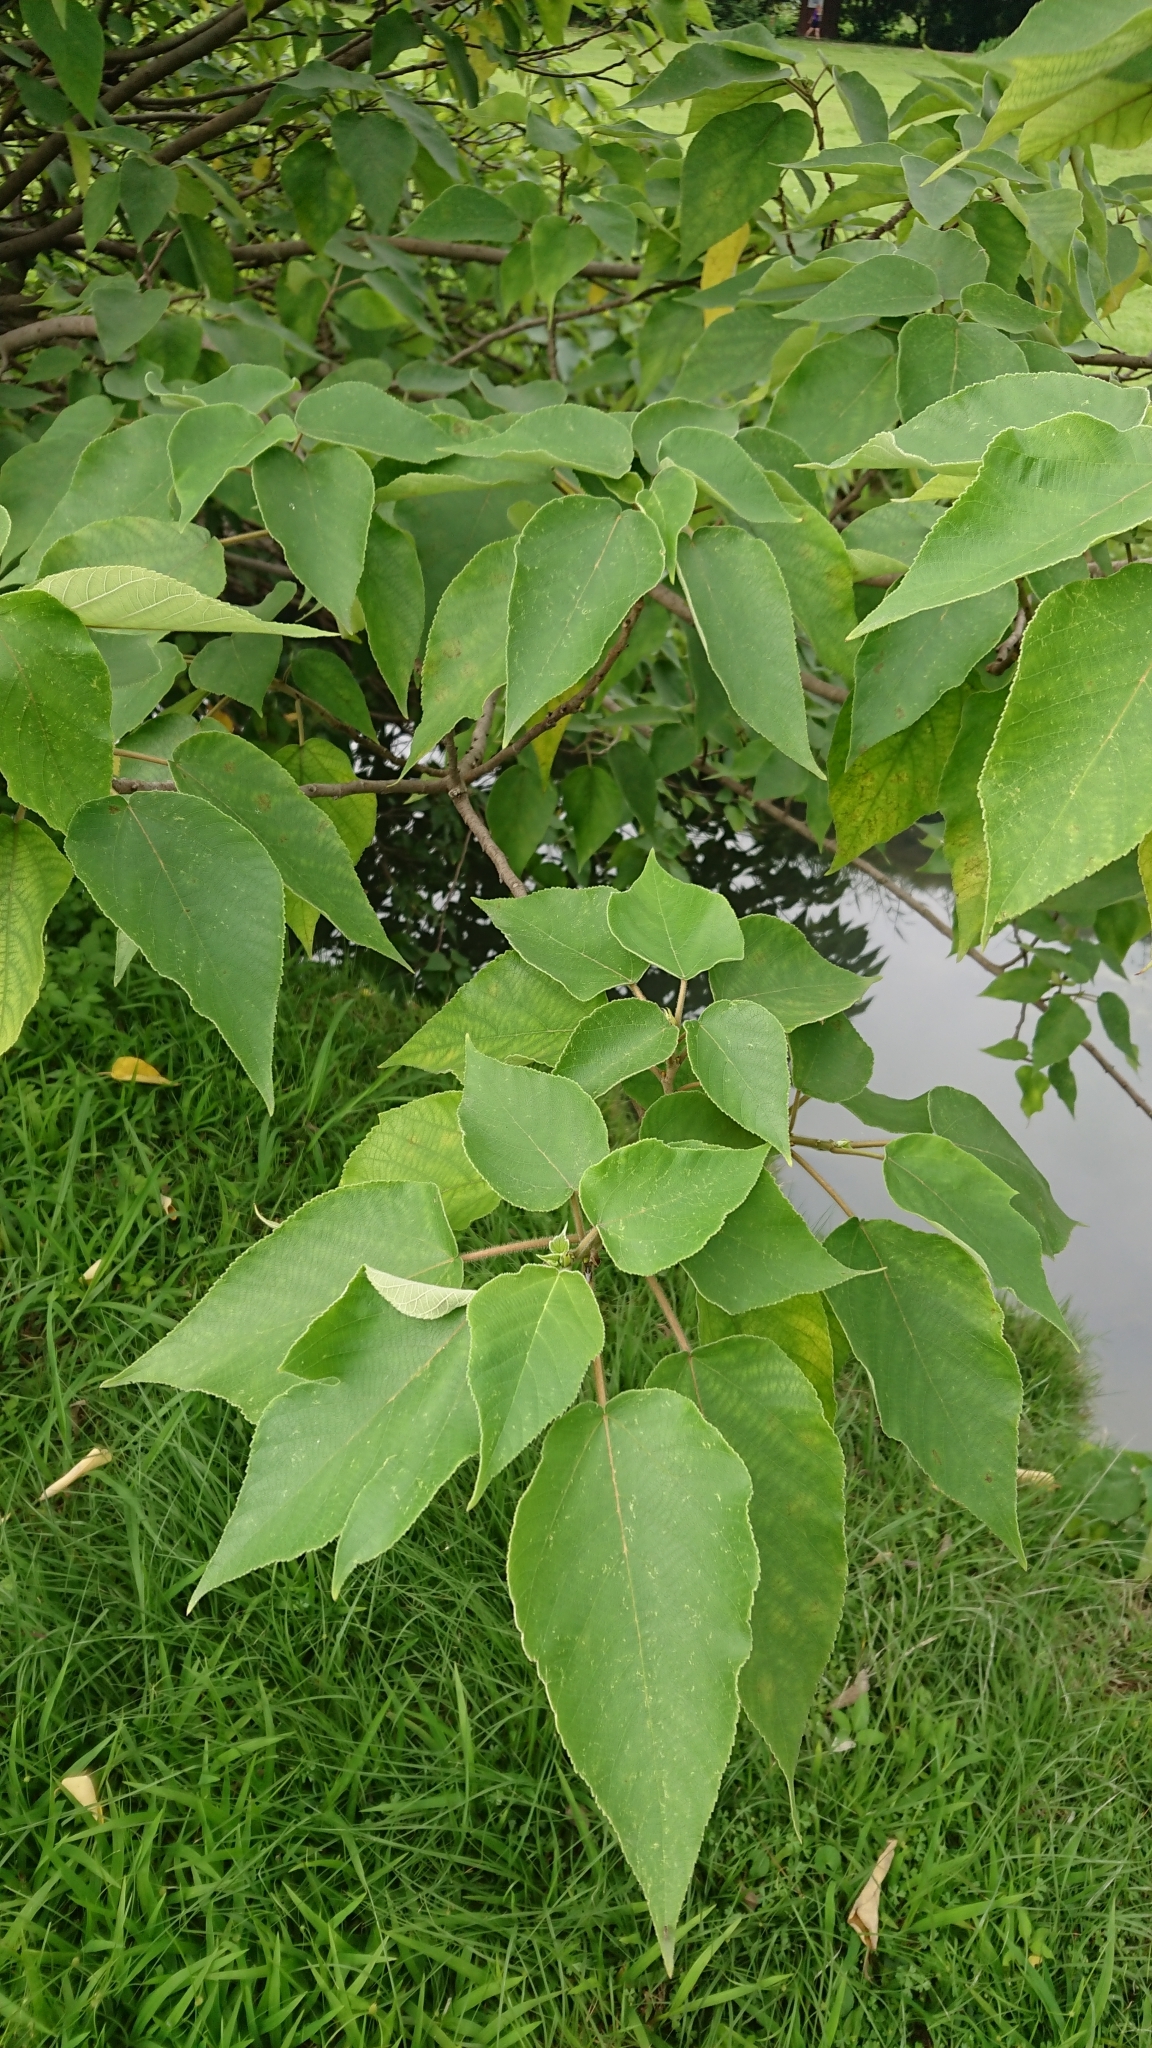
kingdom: Plantae
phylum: Tracheophyta
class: Magnoliopsida
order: Rosales
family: Moraceae
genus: Broussonetia
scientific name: Broussonetia papyrifera
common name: Paper mulberry
